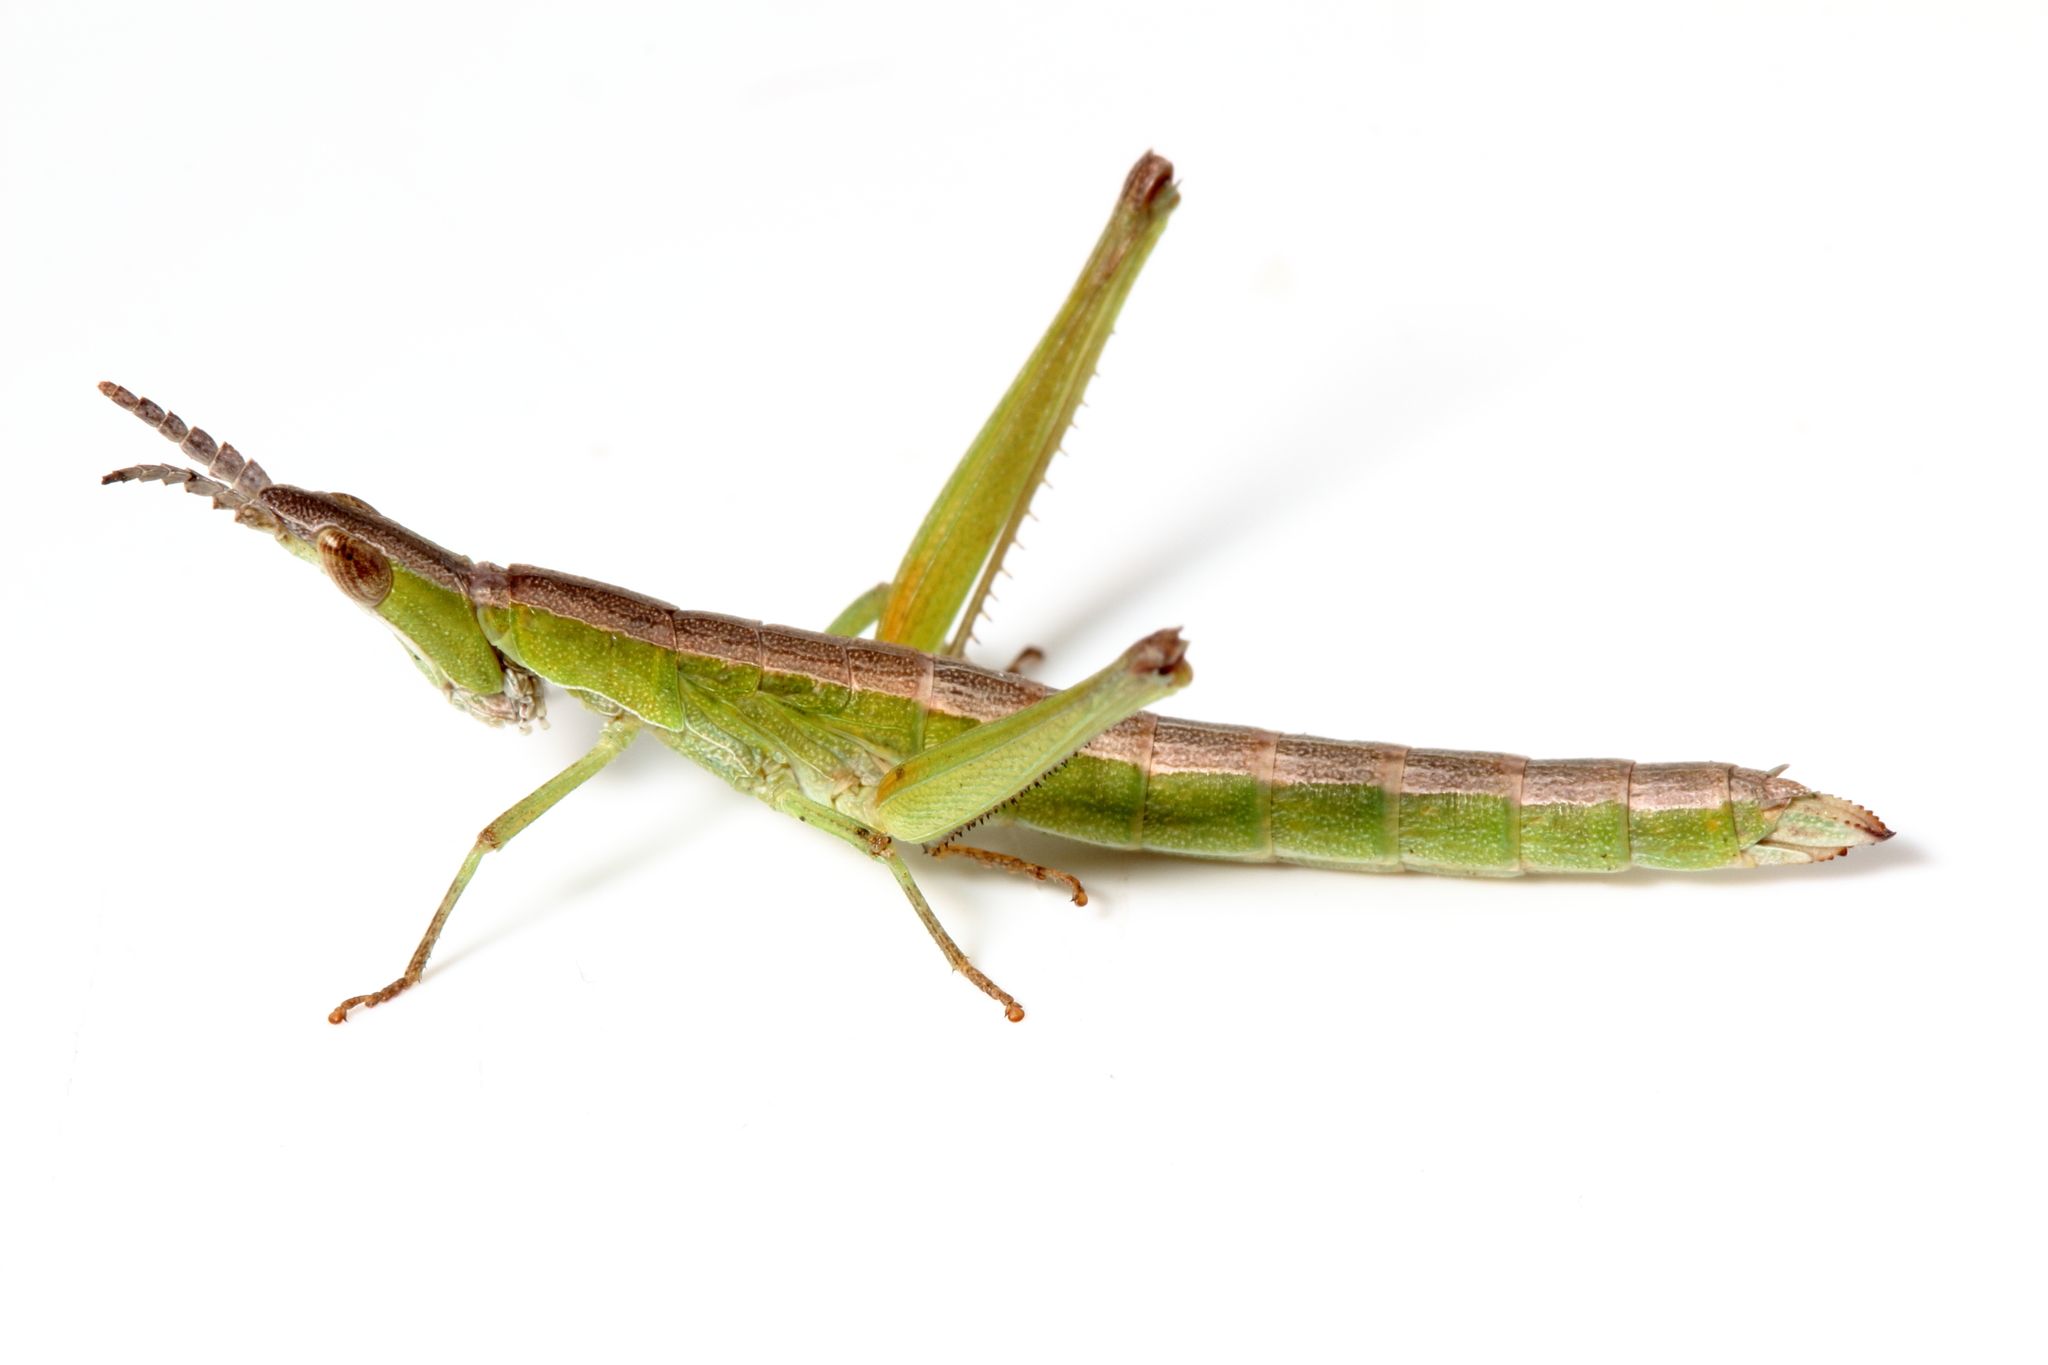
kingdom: Animalia
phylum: Arthropoda
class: Insecta
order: Orthoptera
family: Morabidae
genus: Keyacris
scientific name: Keyacris scurra
